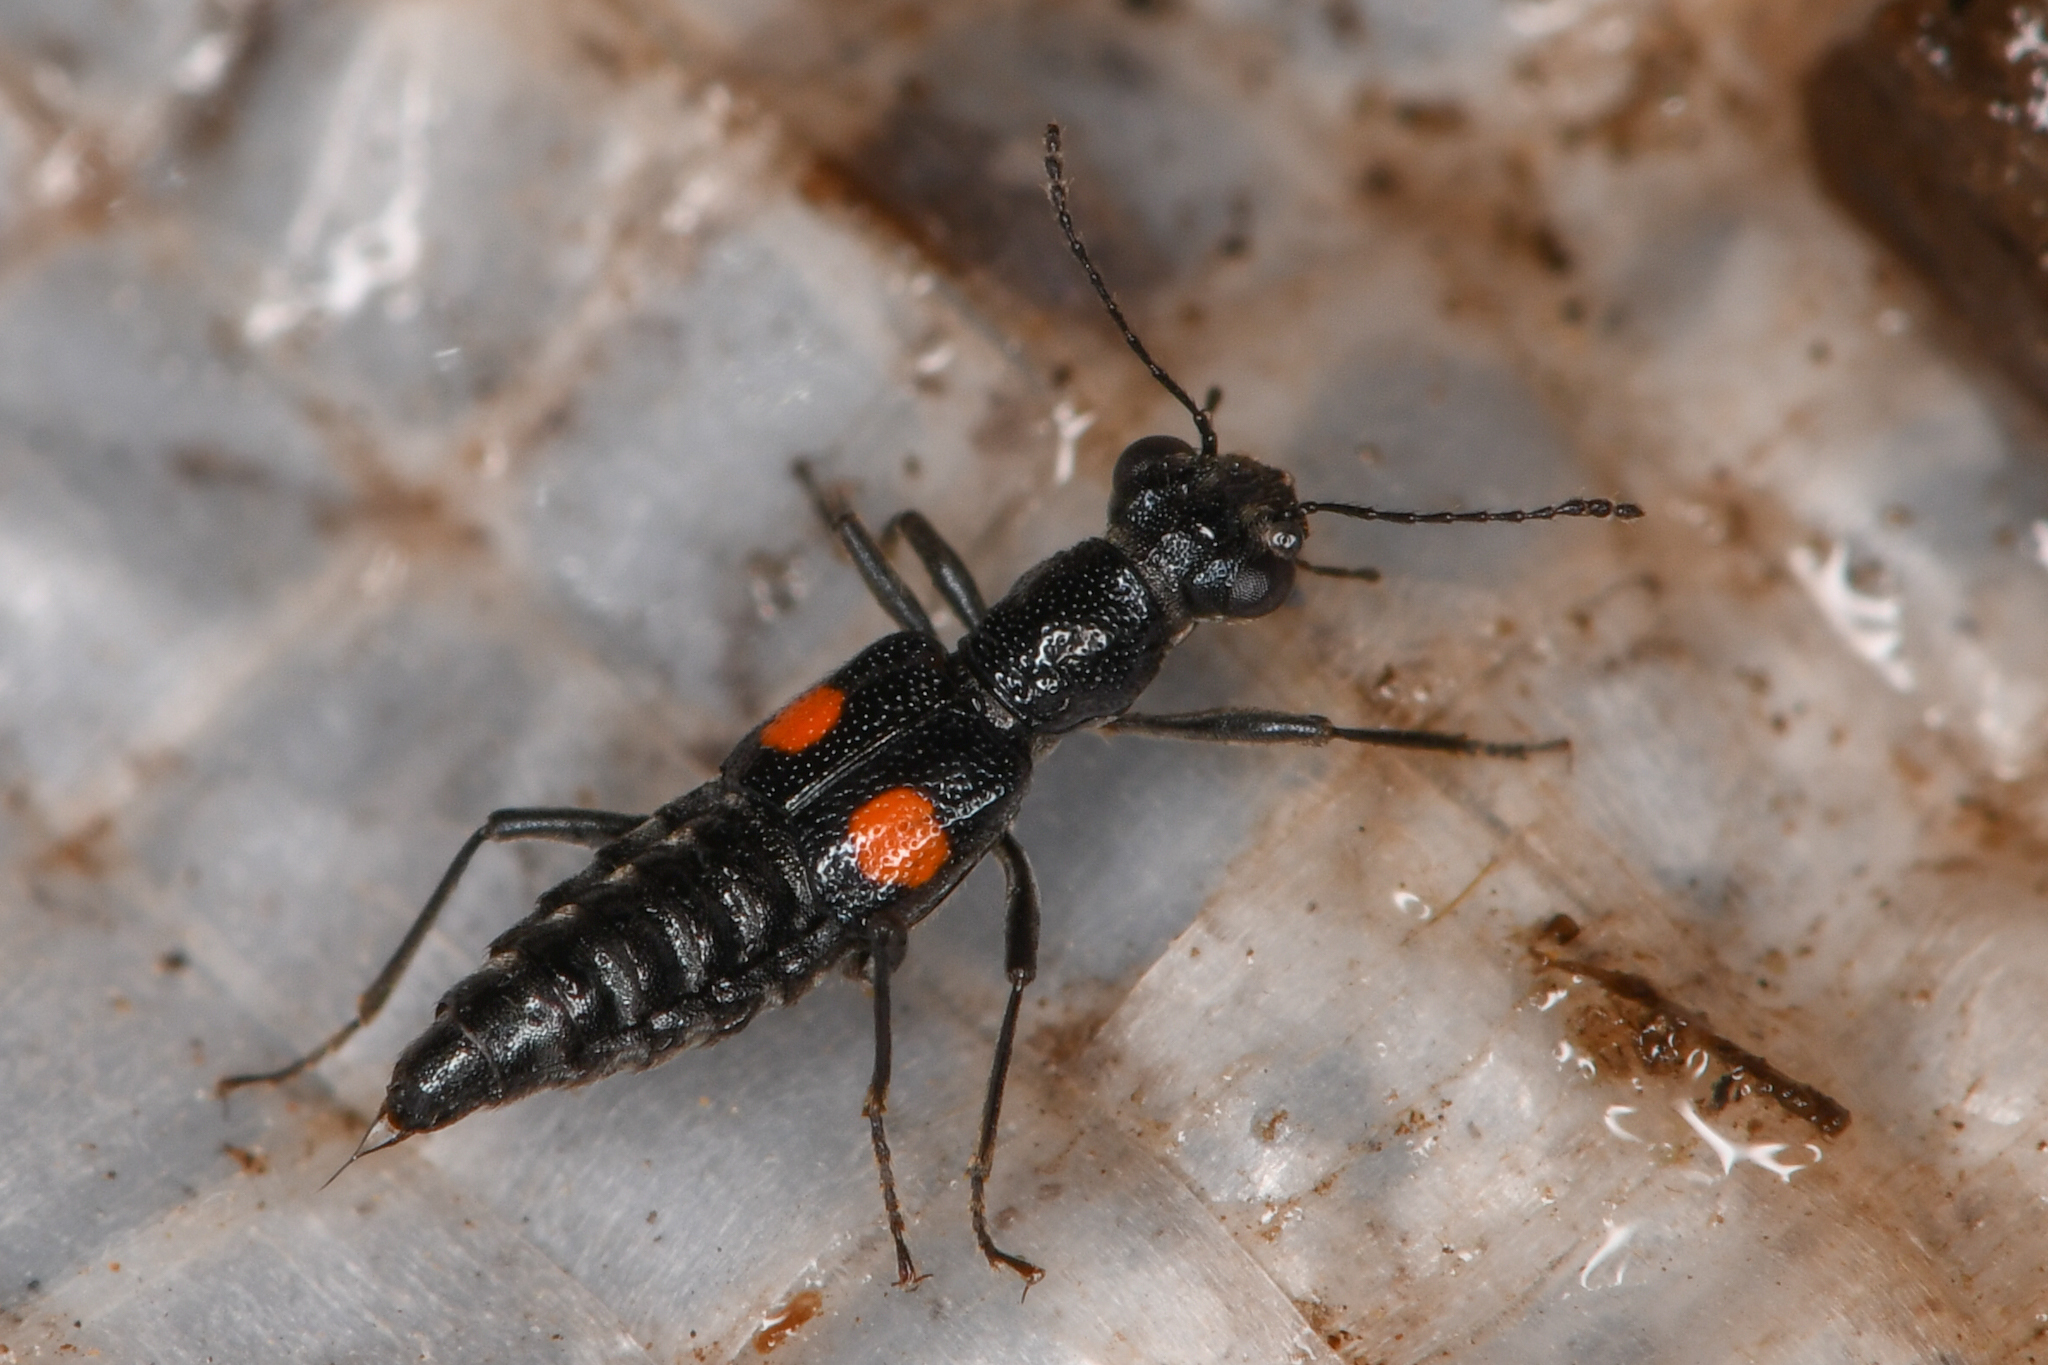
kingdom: Animalia
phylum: Arthropoda
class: Insecta
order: Coleoptera
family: Staphylinidae
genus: Dianous
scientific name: Dianous nitidulus
